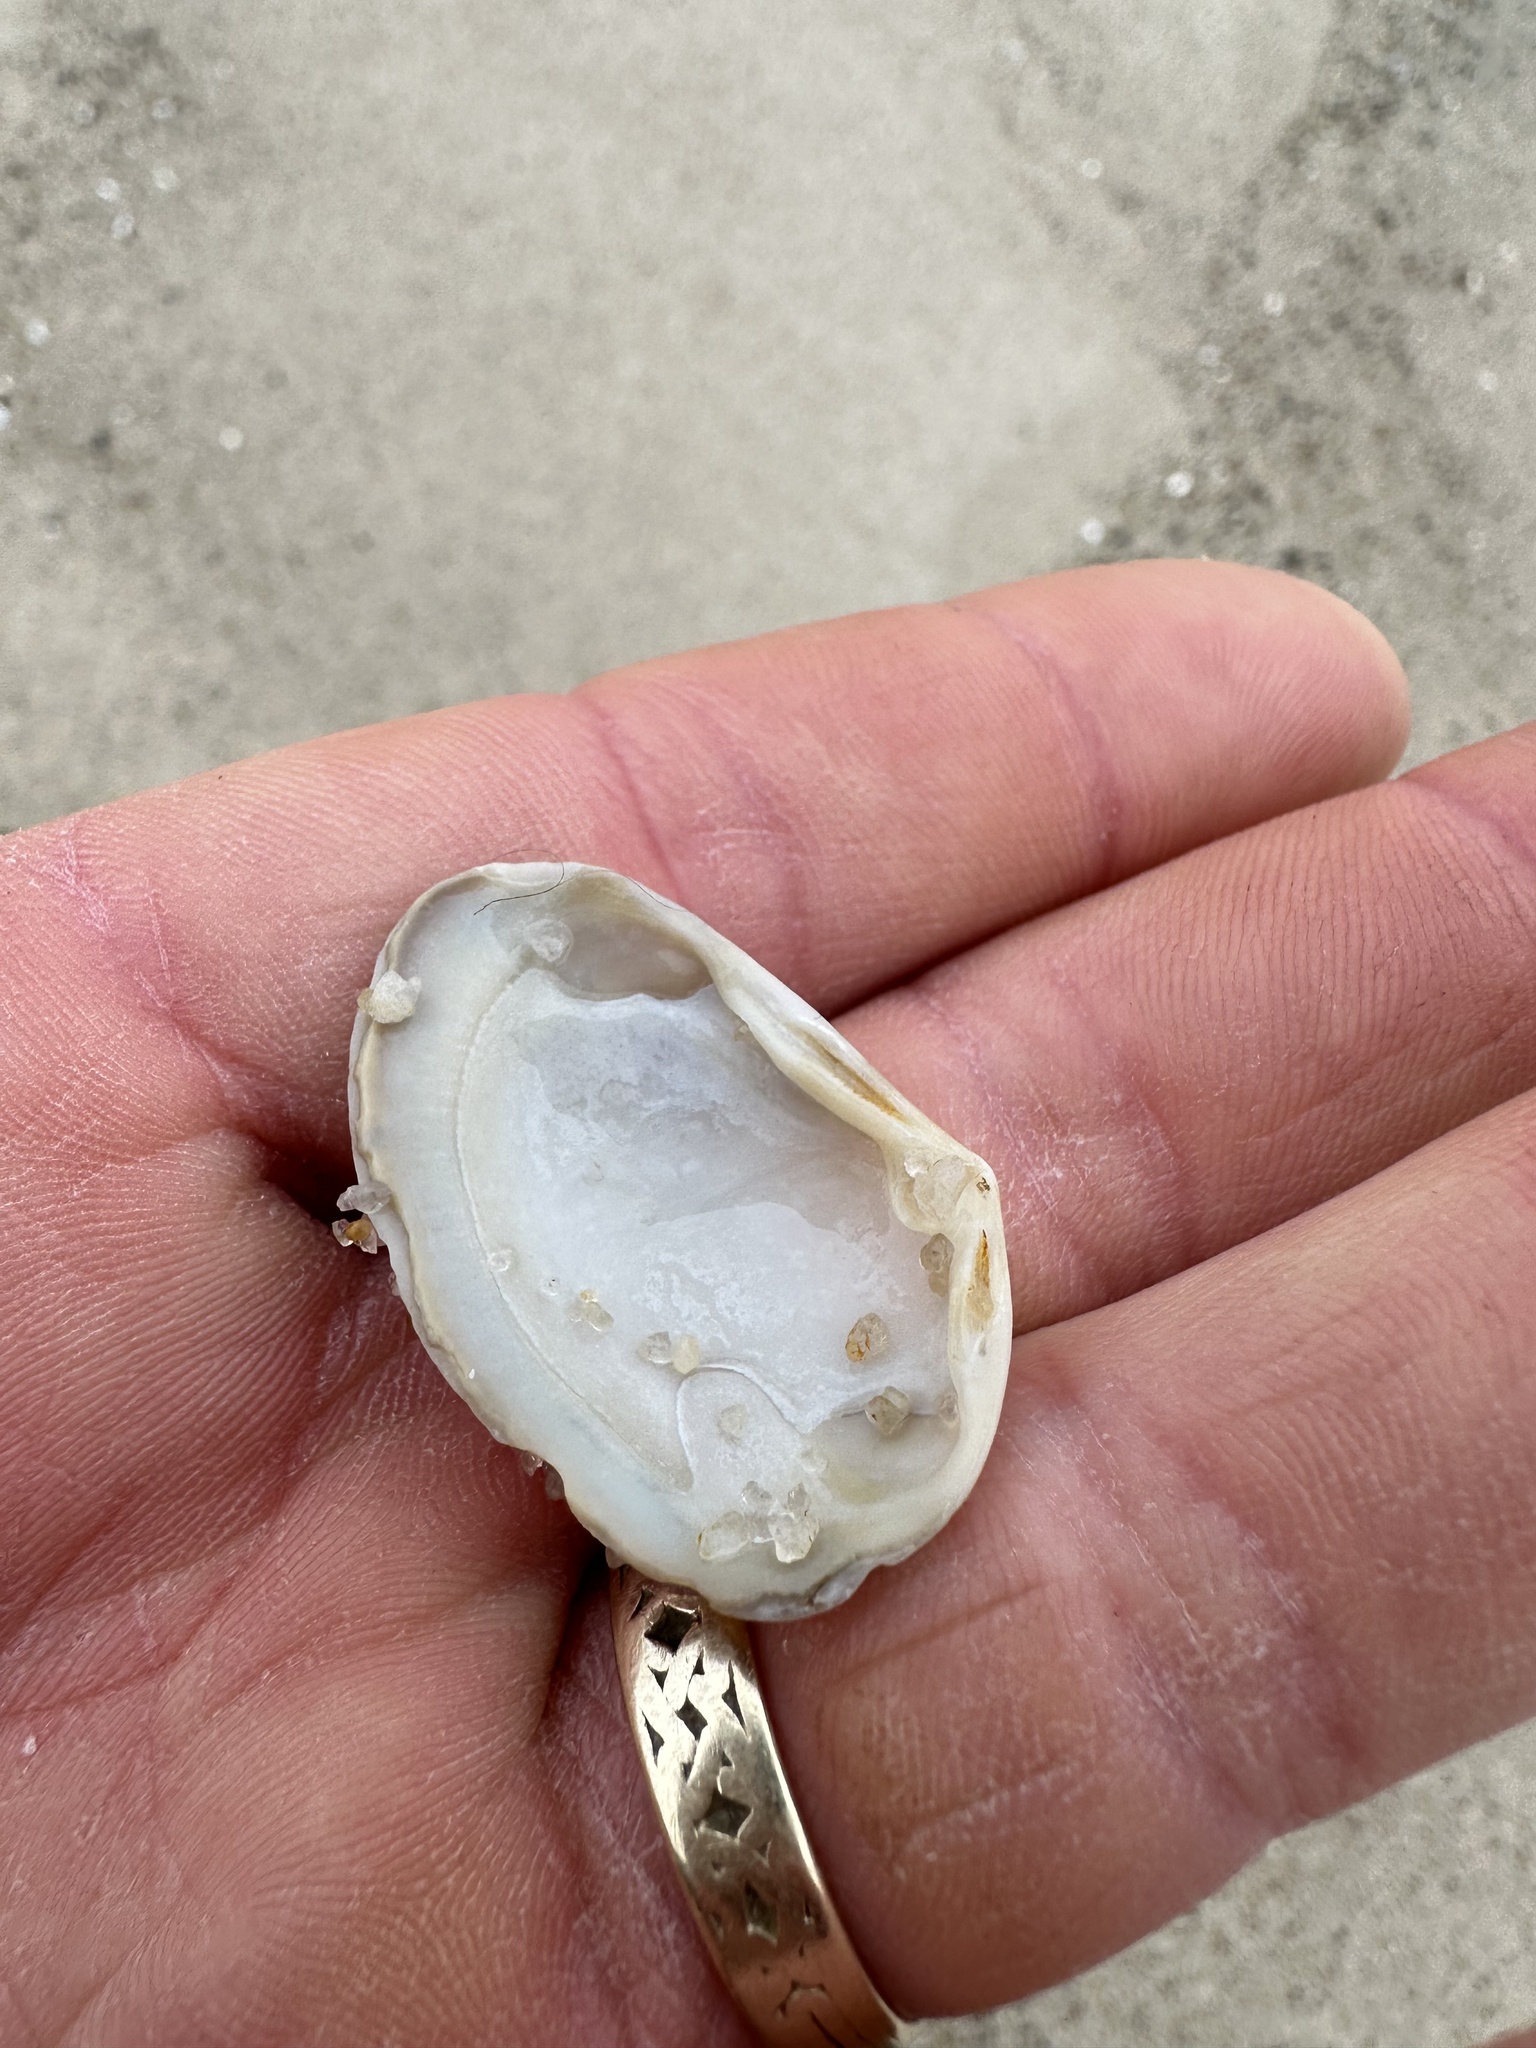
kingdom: Animalia
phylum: Mollusca
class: Bivalvia
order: Venerida
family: Mesodesmatidae
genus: Mesodesma
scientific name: Mesodesma arctatum
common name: Compressed clam
